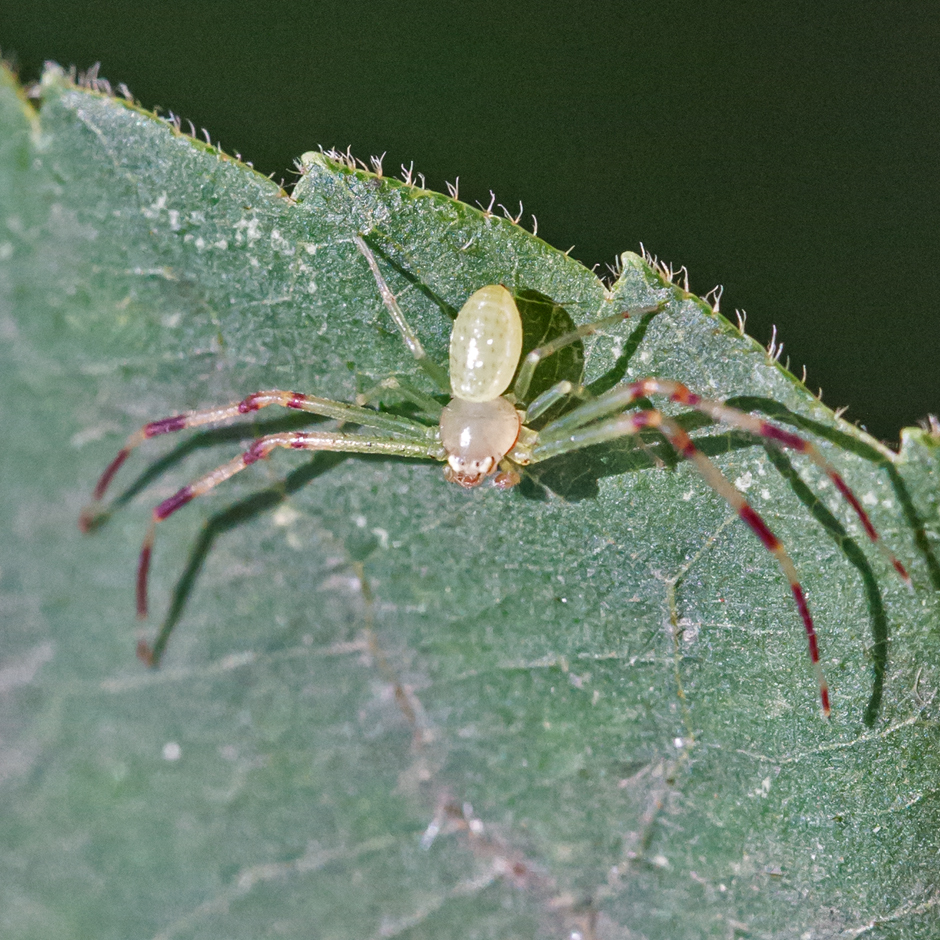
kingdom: Animalia
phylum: Arthropoda
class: Arachnida
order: Araneae
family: Thomisidae
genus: Misumessus
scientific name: Misumessus oblongus
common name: American green crab spider
